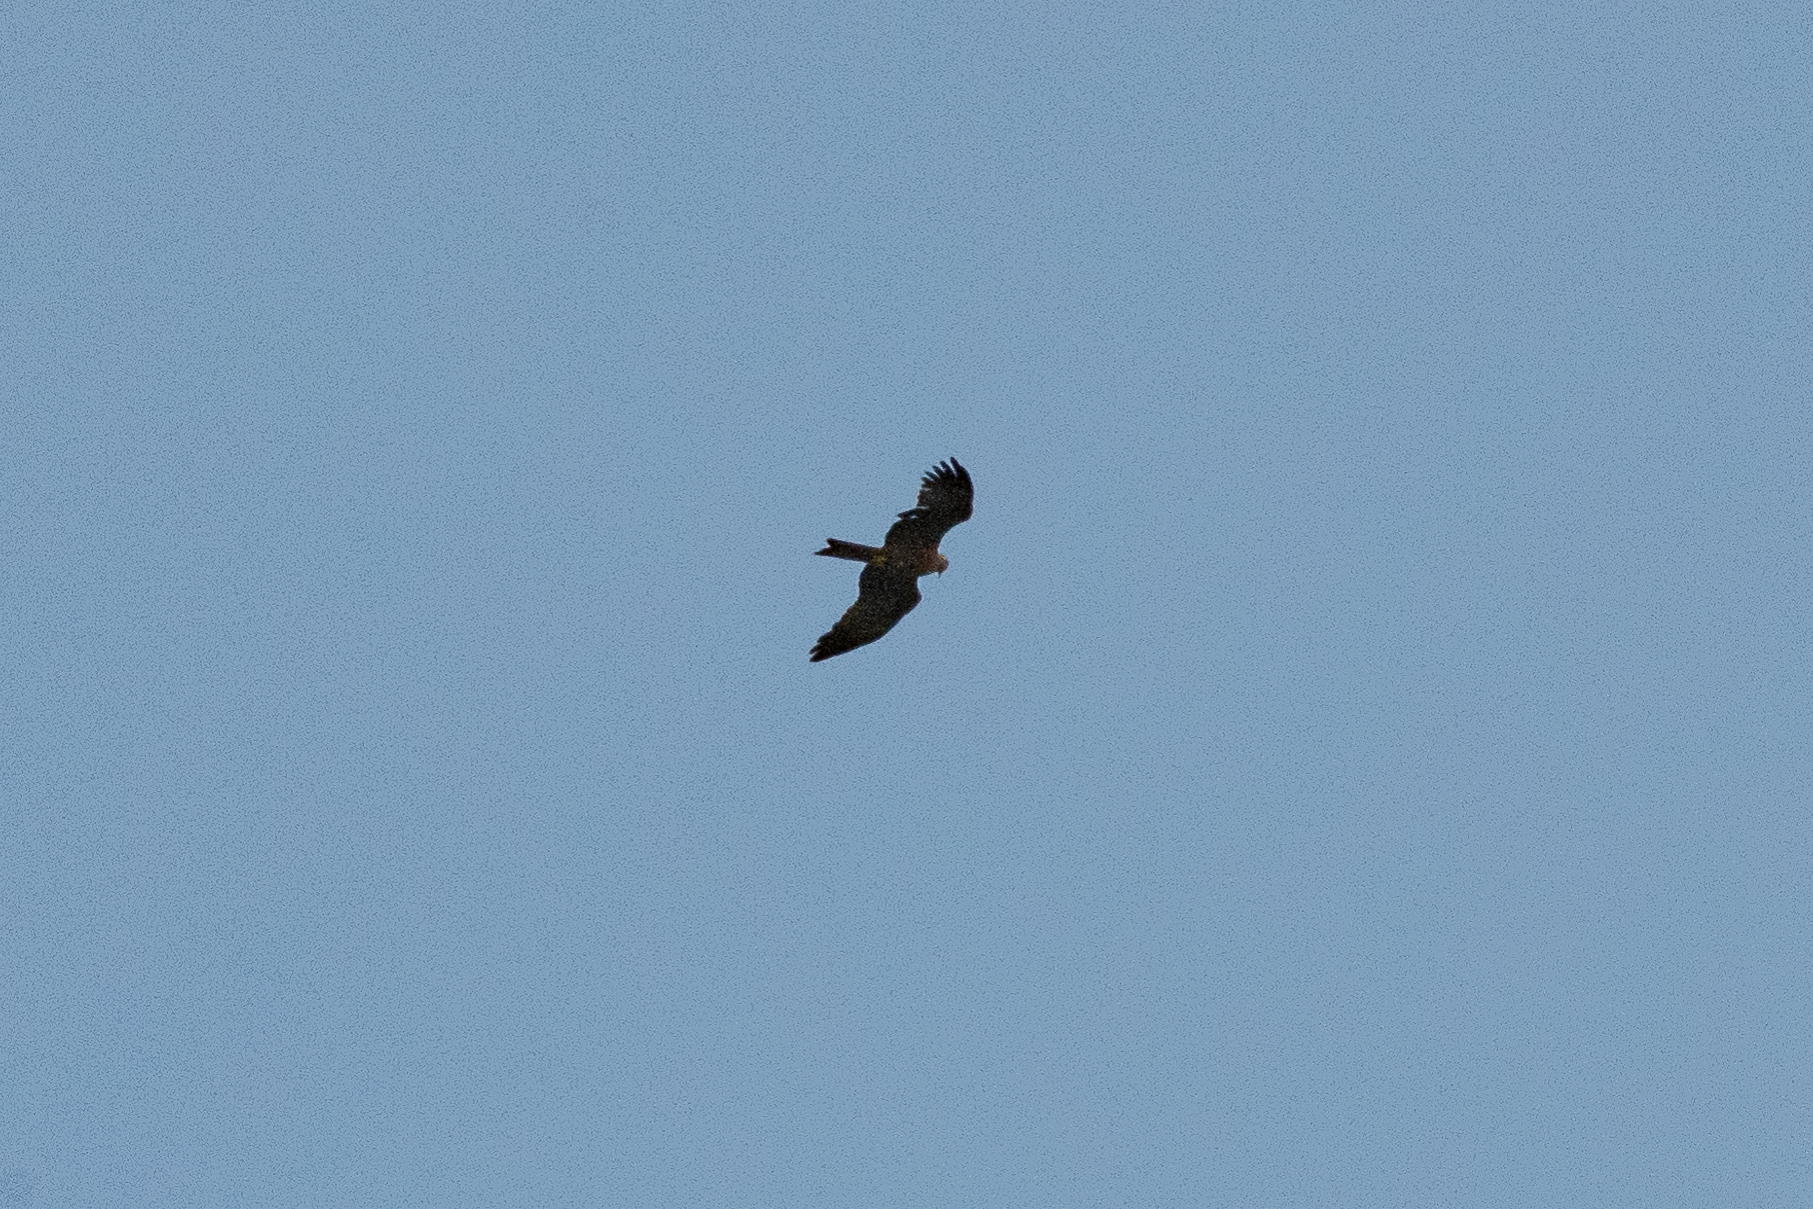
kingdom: Animalia
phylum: Chordata
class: Aves
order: Accipitriformes
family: Accipitridae
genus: Milvus
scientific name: Milvus migrans
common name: Black kite
